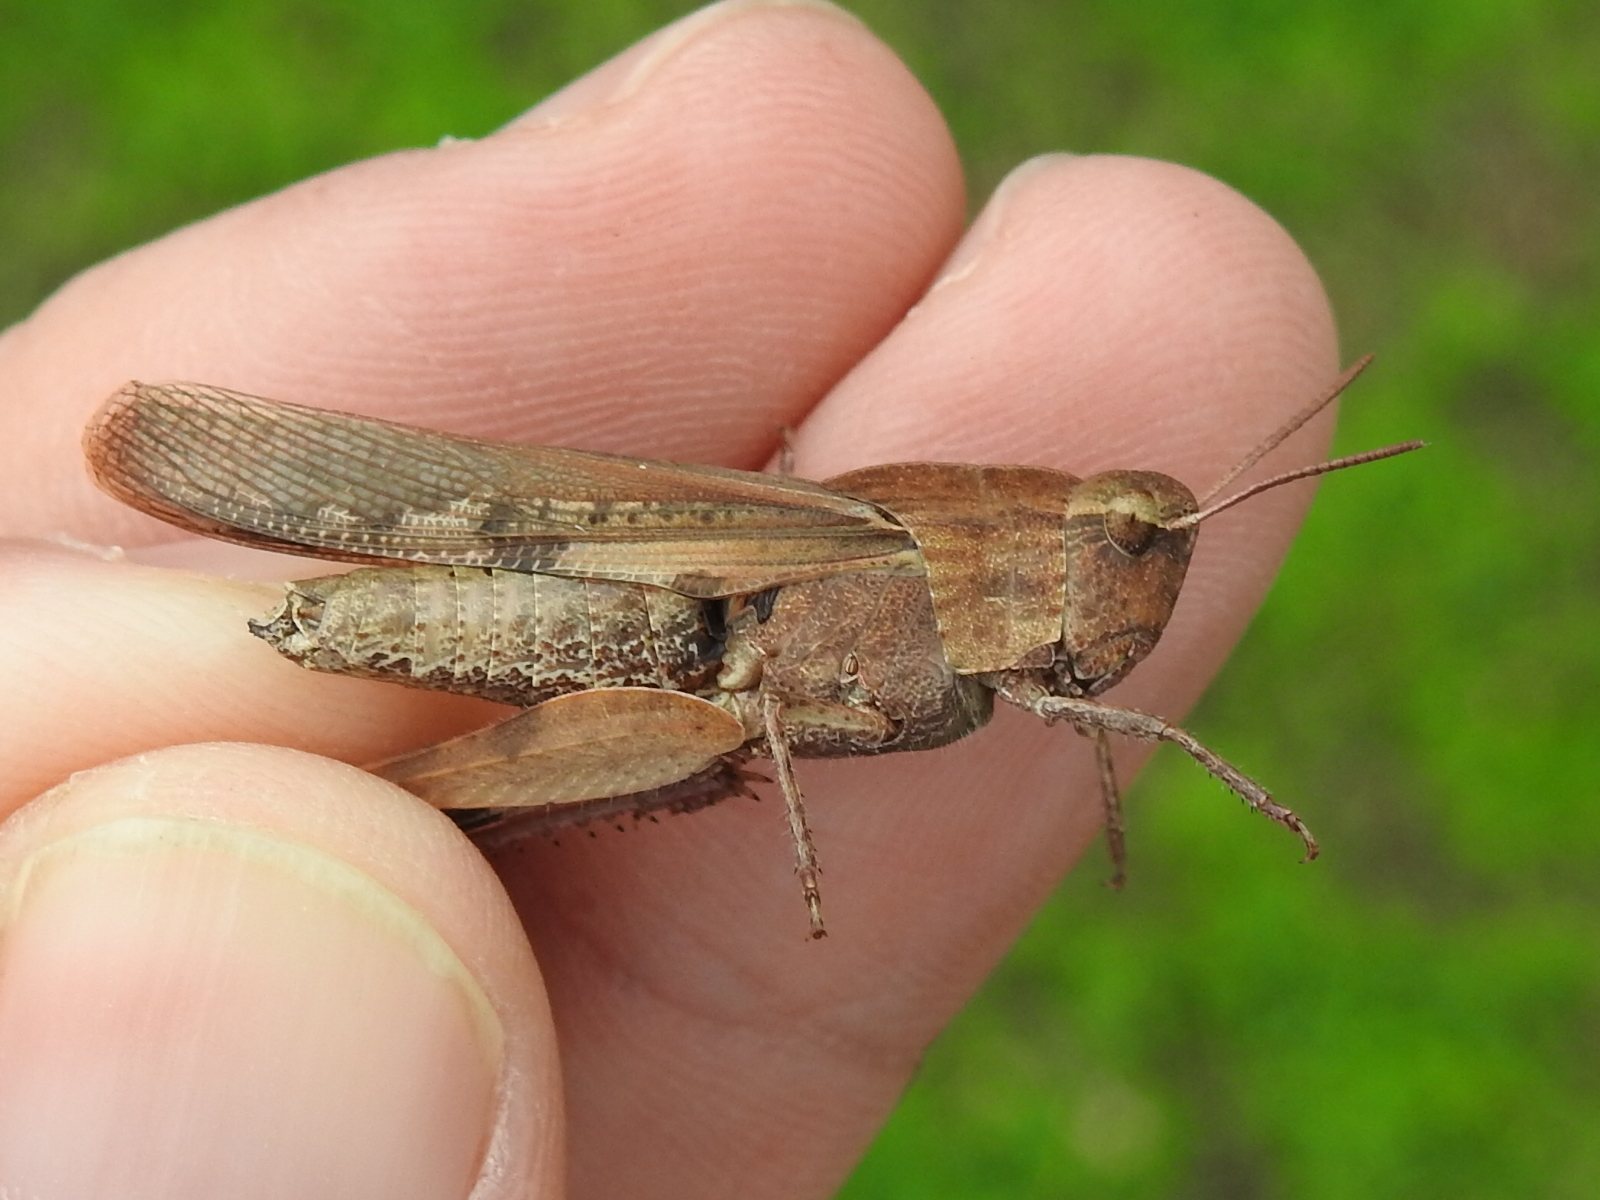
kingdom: Animalia
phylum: Arthropoda
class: Insecta
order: Orthoptera
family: Acrididae
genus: Chortophaga
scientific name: Chortophaga viridifasciata
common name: Green-striped grasshopper
